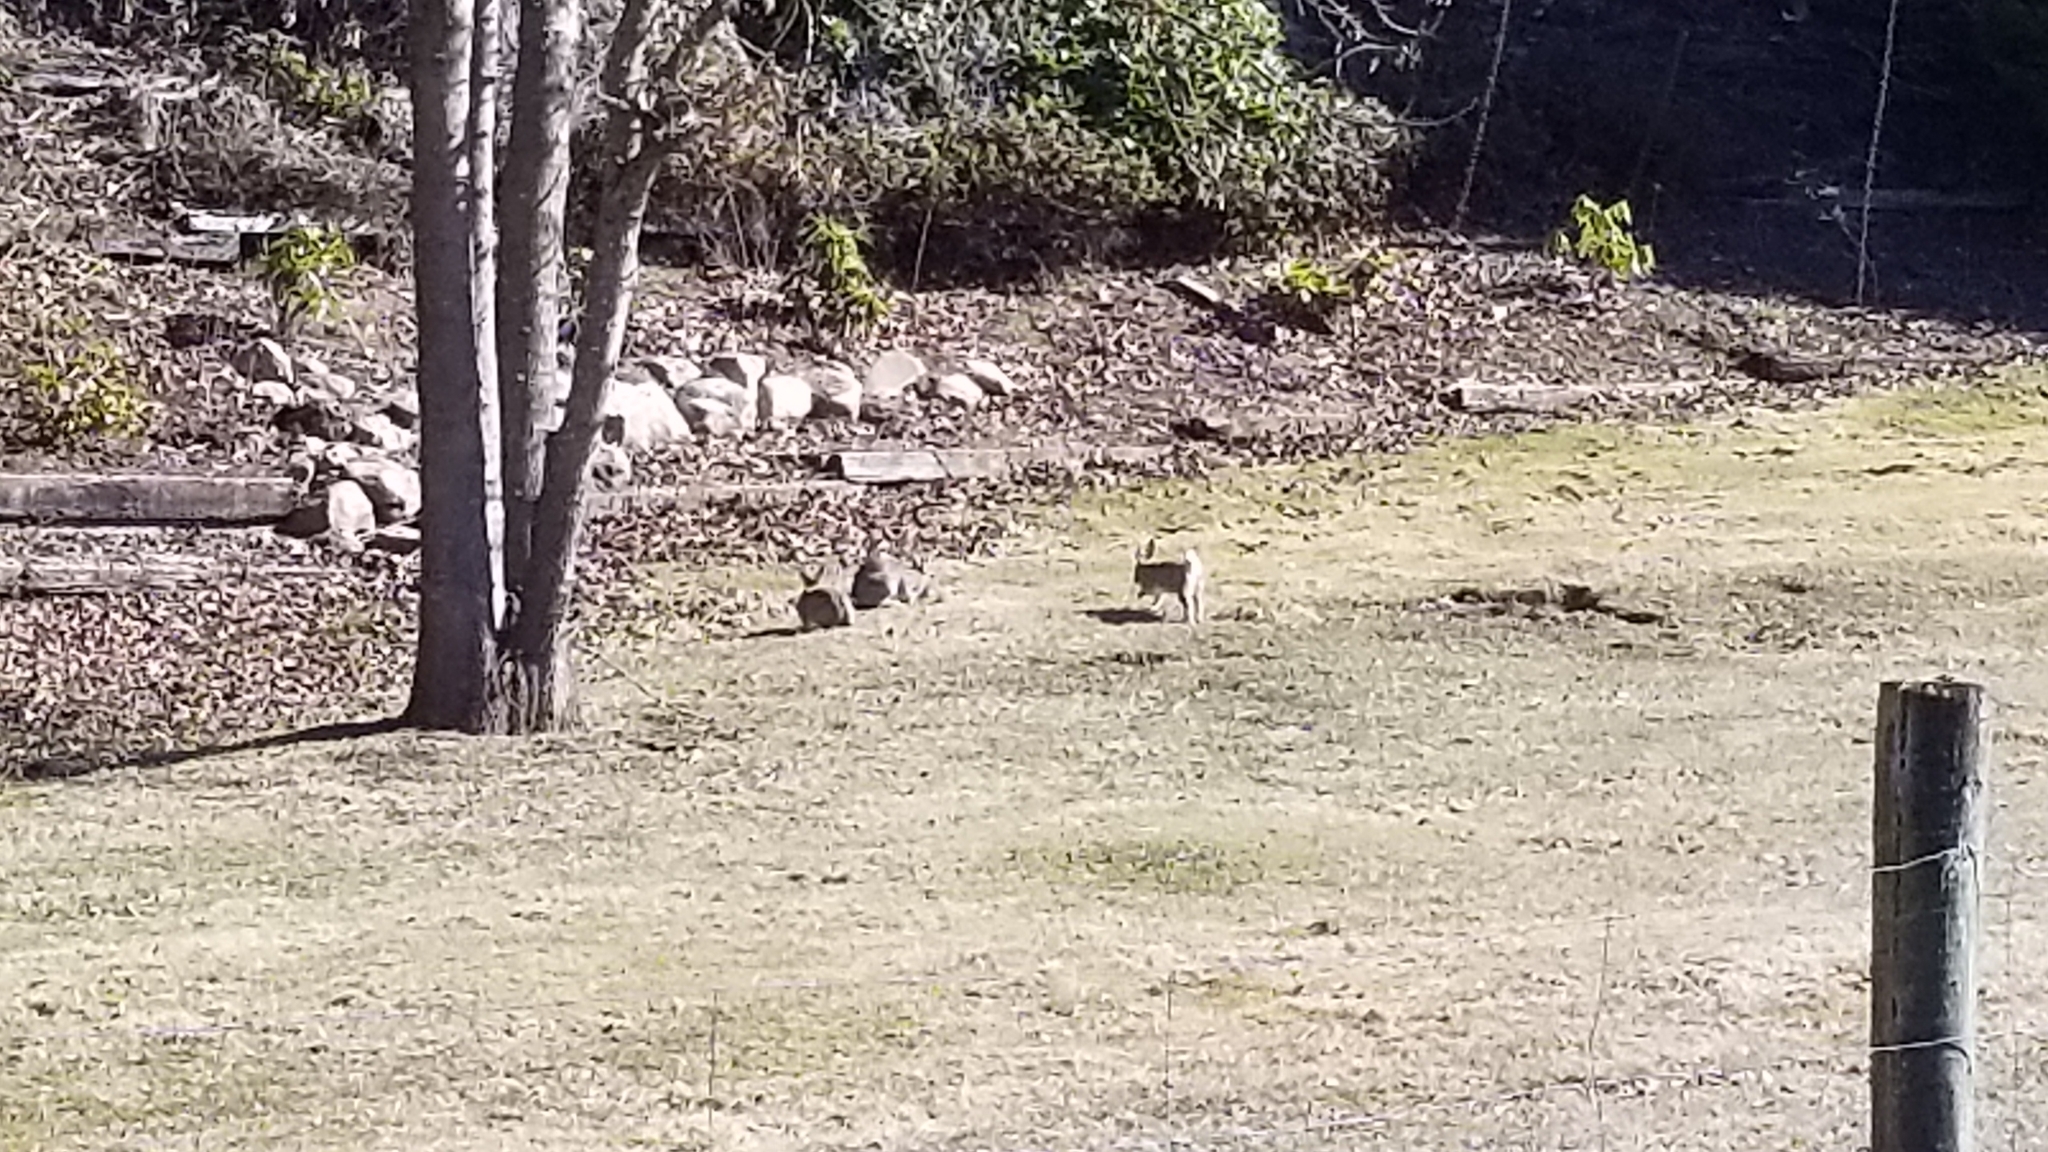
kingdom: Animalia
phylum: Chordata
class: Mammalia
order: Lagomorpha
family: Leporidae
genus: Oryctolagus
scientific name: Oryctolagus cuniculus
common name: European rabbit
